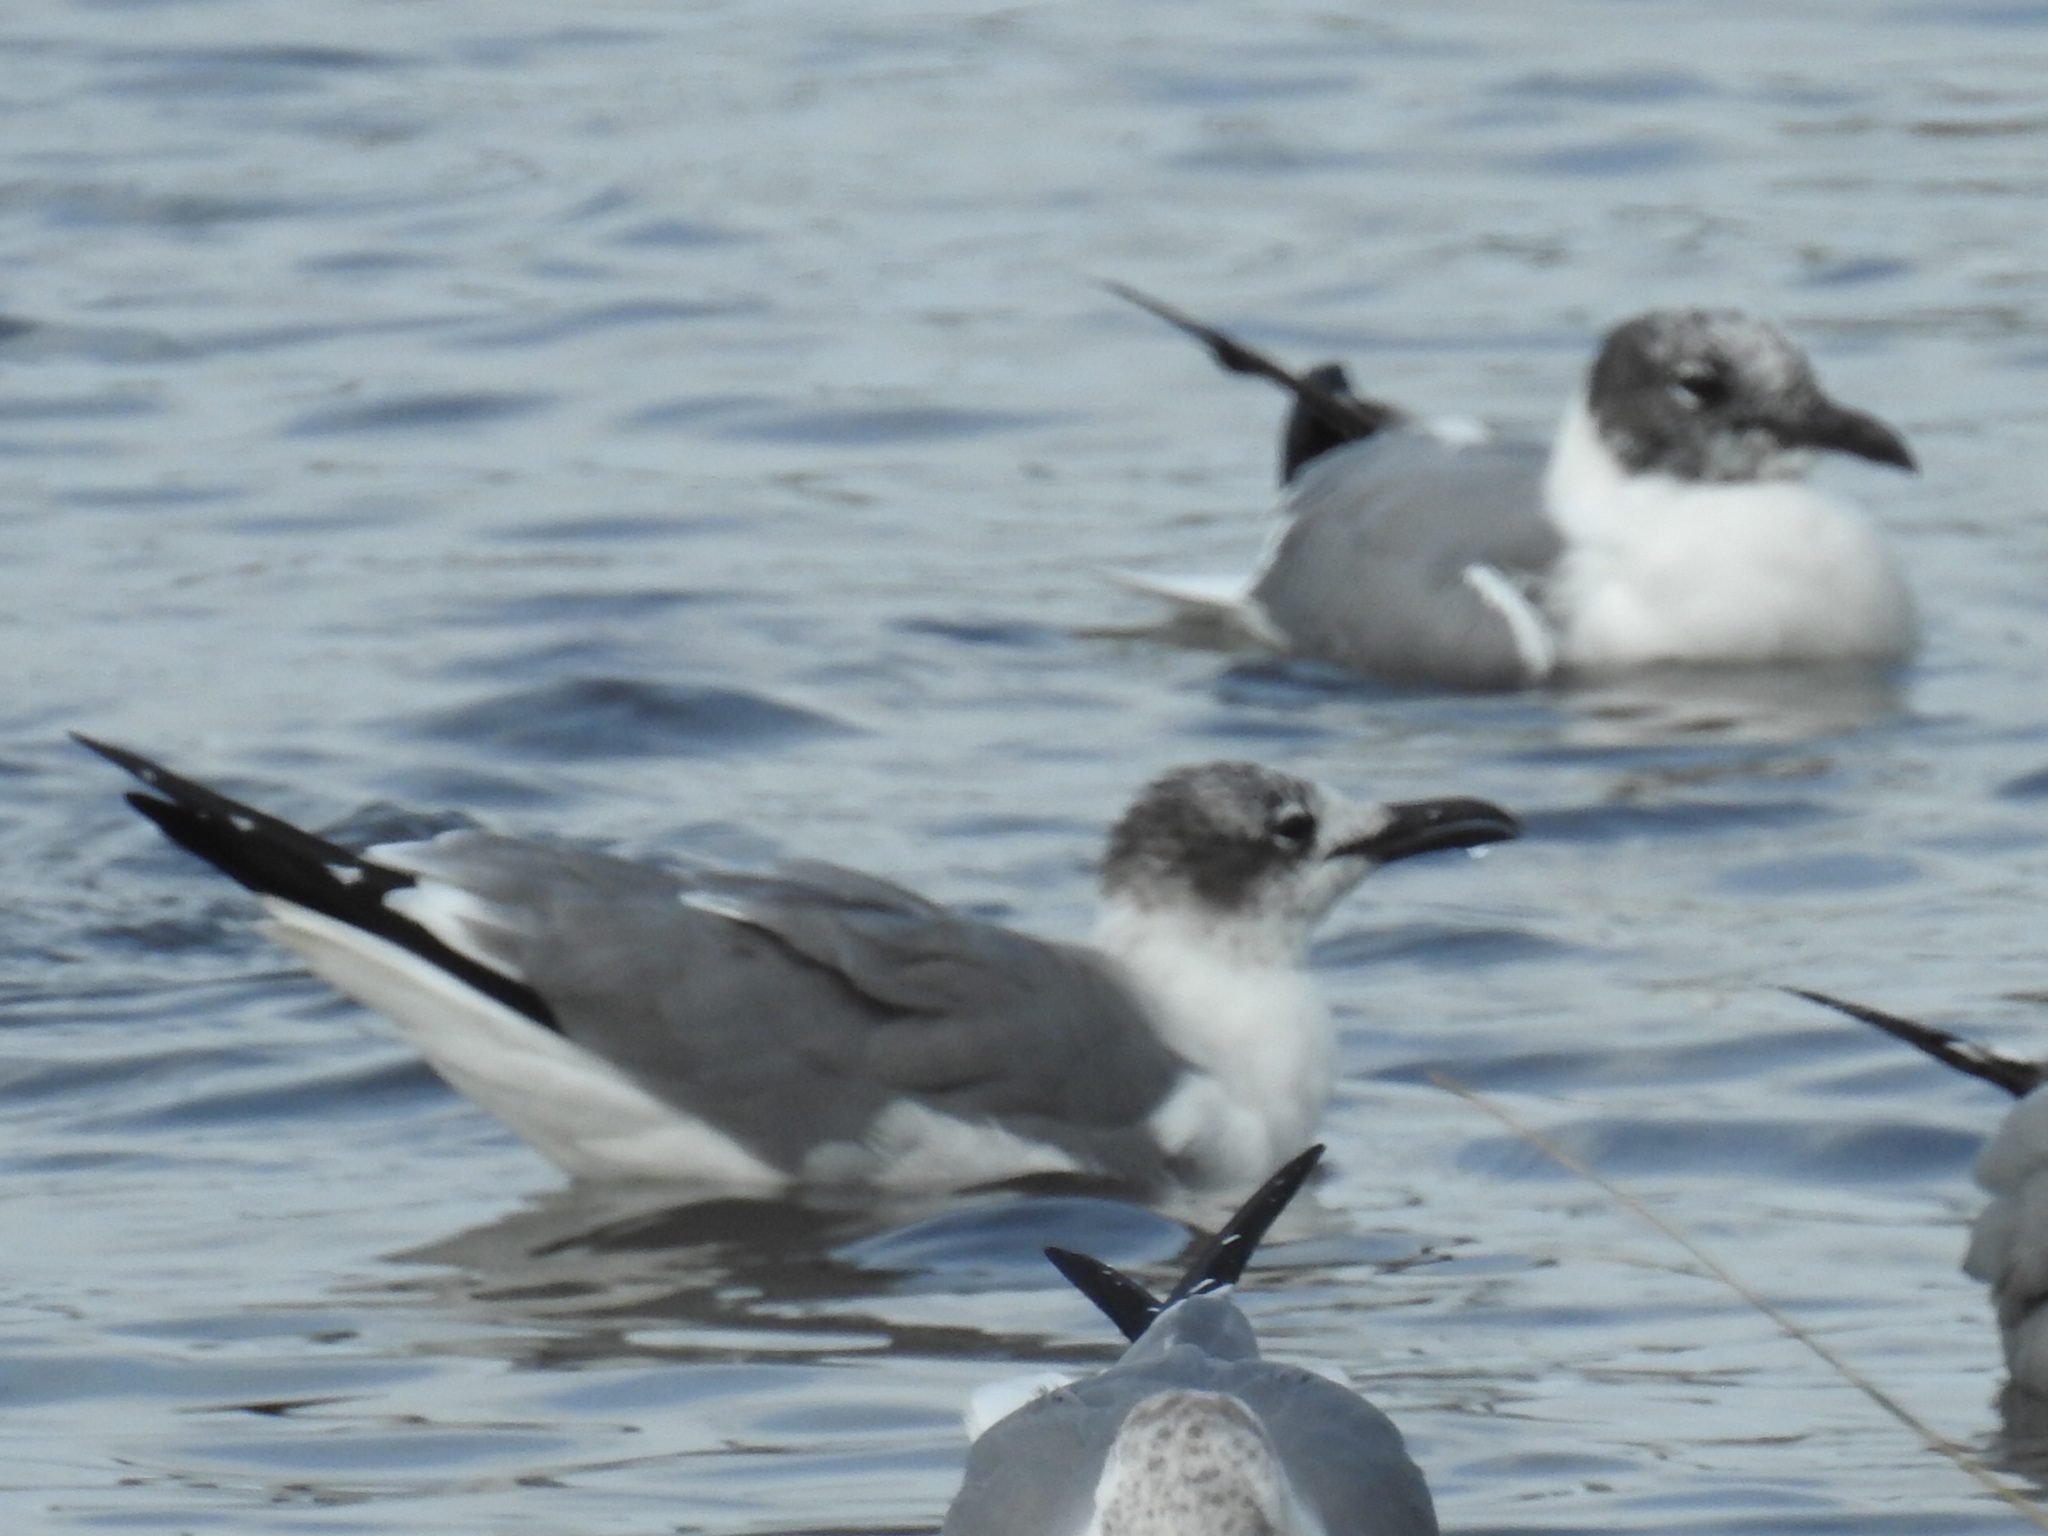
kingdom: Animalia
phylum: Chordata
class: Aves
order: Charadriiformes
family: Laridae
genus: Leucophaeus
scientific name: Leucophaeus atricilla
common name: Laughing gull
